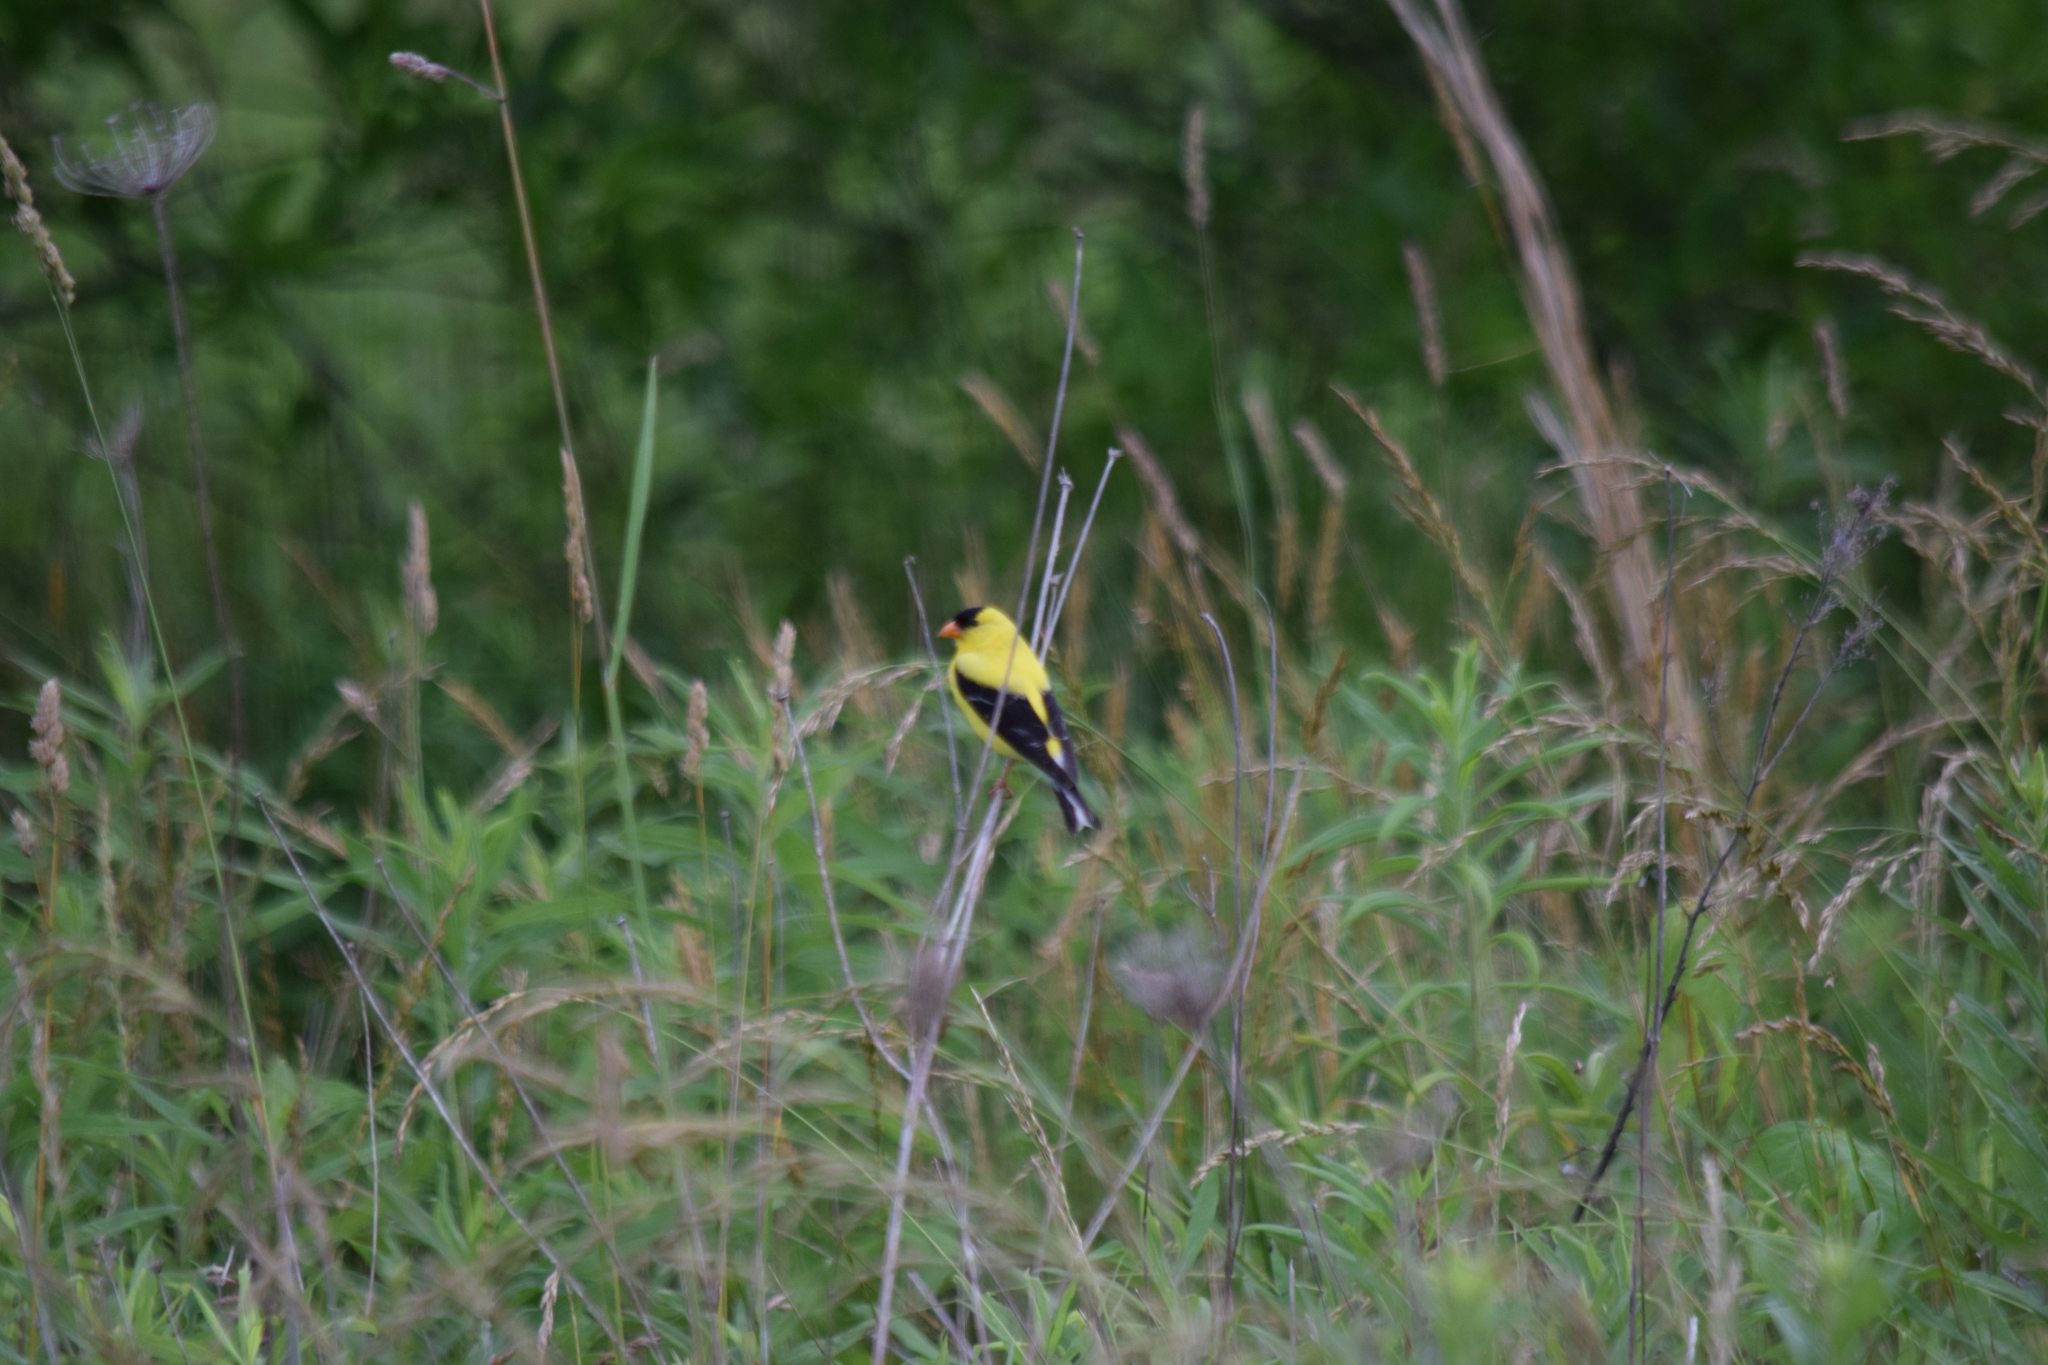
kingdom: Animalia
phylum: Chordata
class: Aves
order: Passeriformes
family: Fringillidae
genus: Spinus
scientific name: Spinus tristis
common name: American goldfinch
